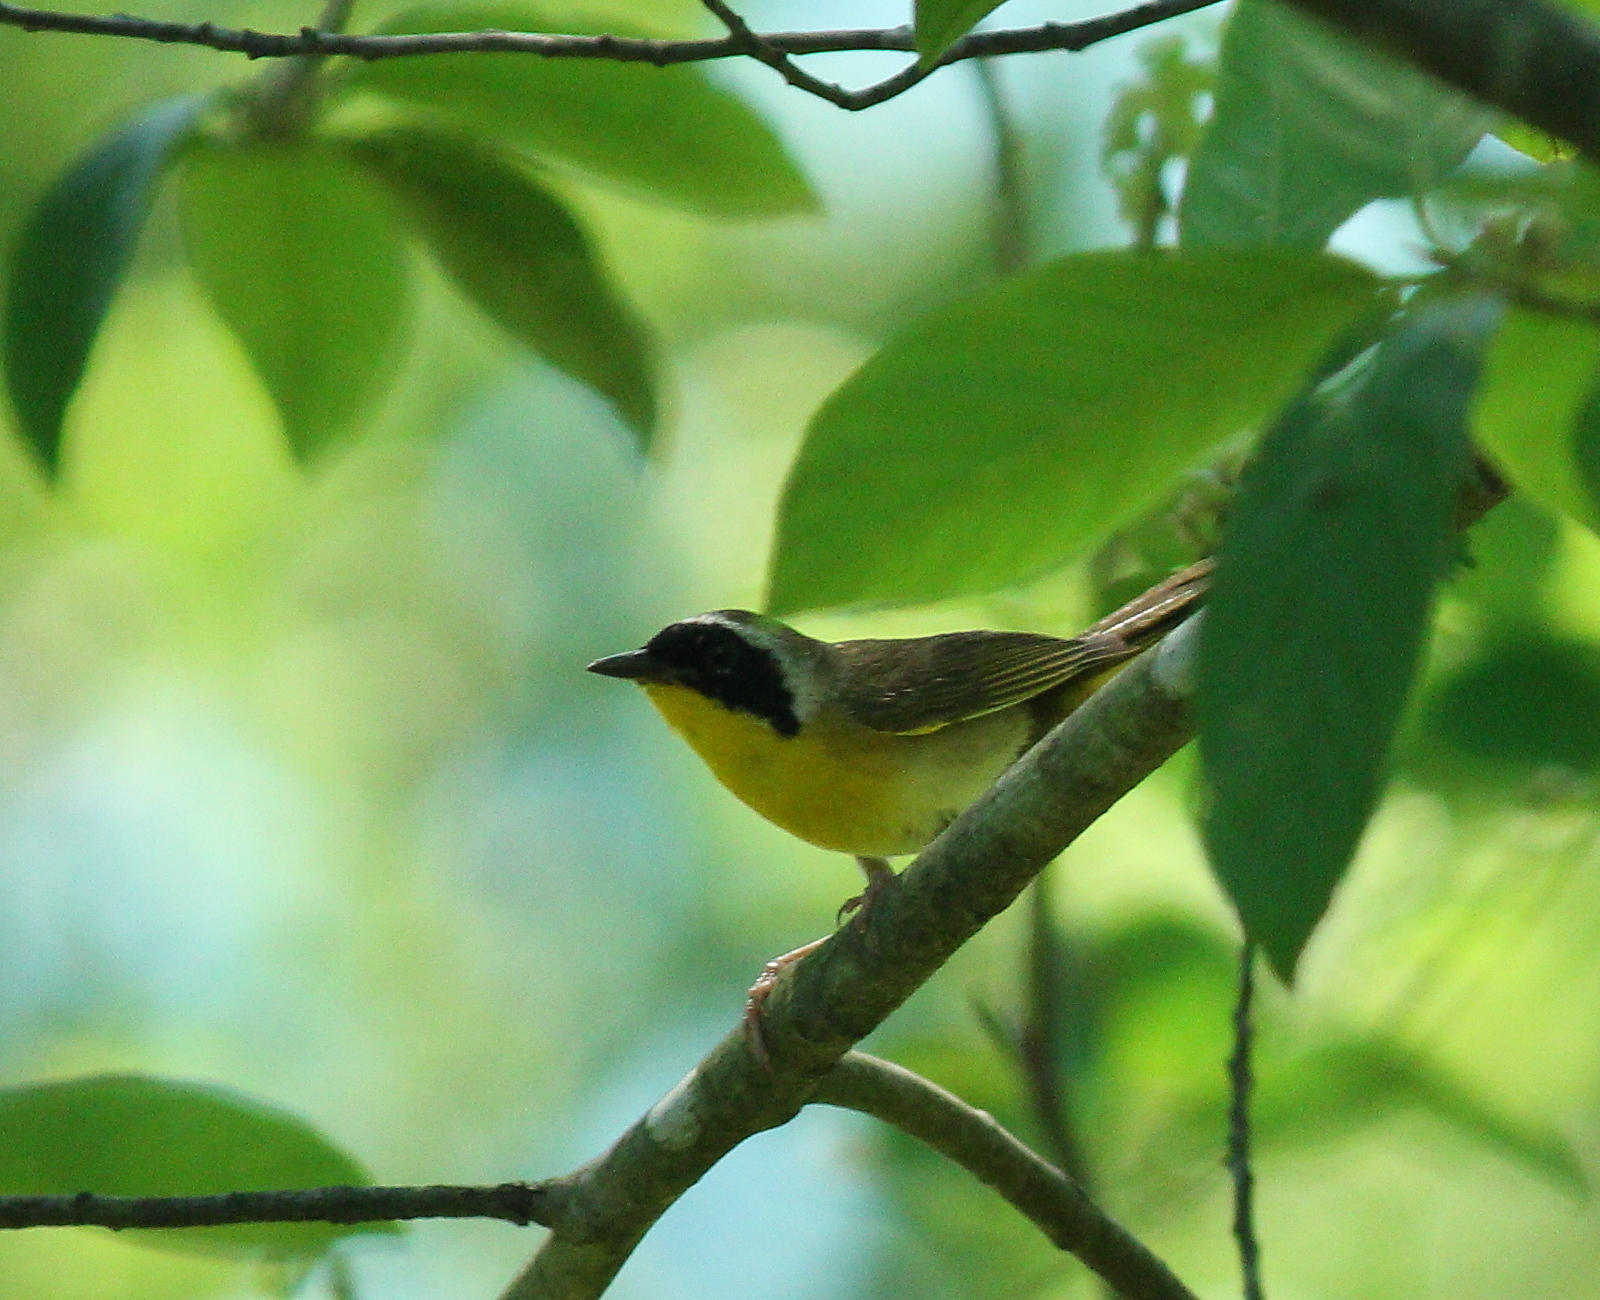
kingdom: Animalia
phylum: Chordata
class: Aves
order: Passeriformes
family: Parulidae
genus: Geothlypis
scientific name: Geothlypis trichas
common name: Common yellowthroat
